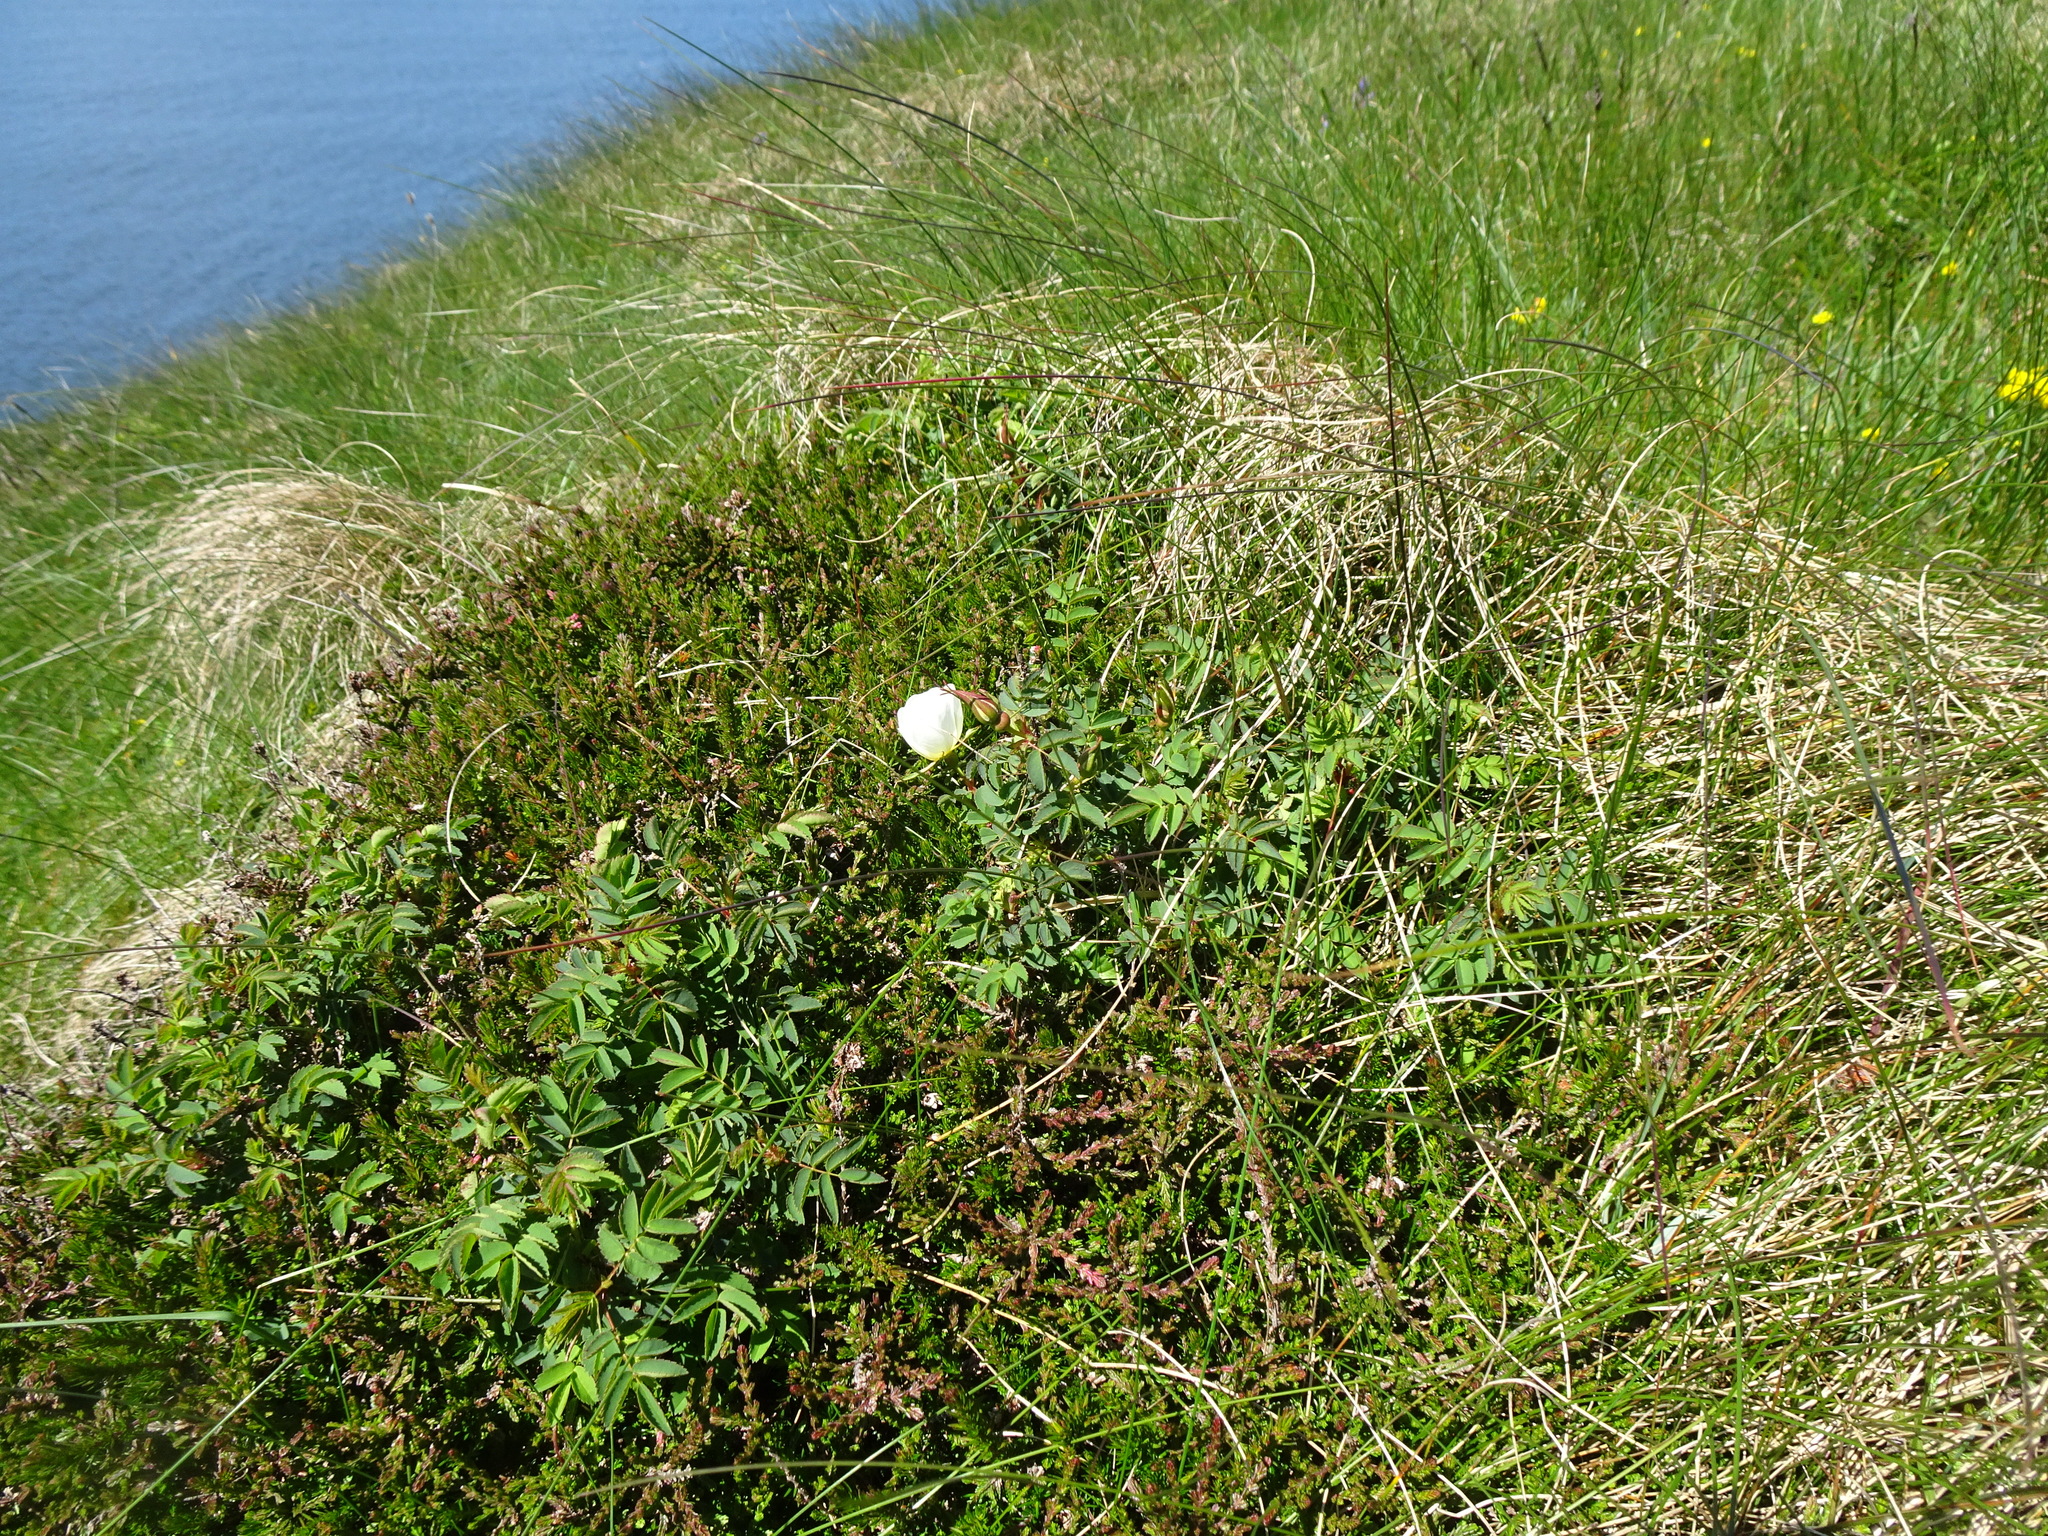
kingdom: Plantae
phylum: Tracheophyta
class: Magnoliopsida
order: Rosales
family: Rosaceae
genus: Rosa
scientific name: Rosa spinosissima
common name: Burnet rose
